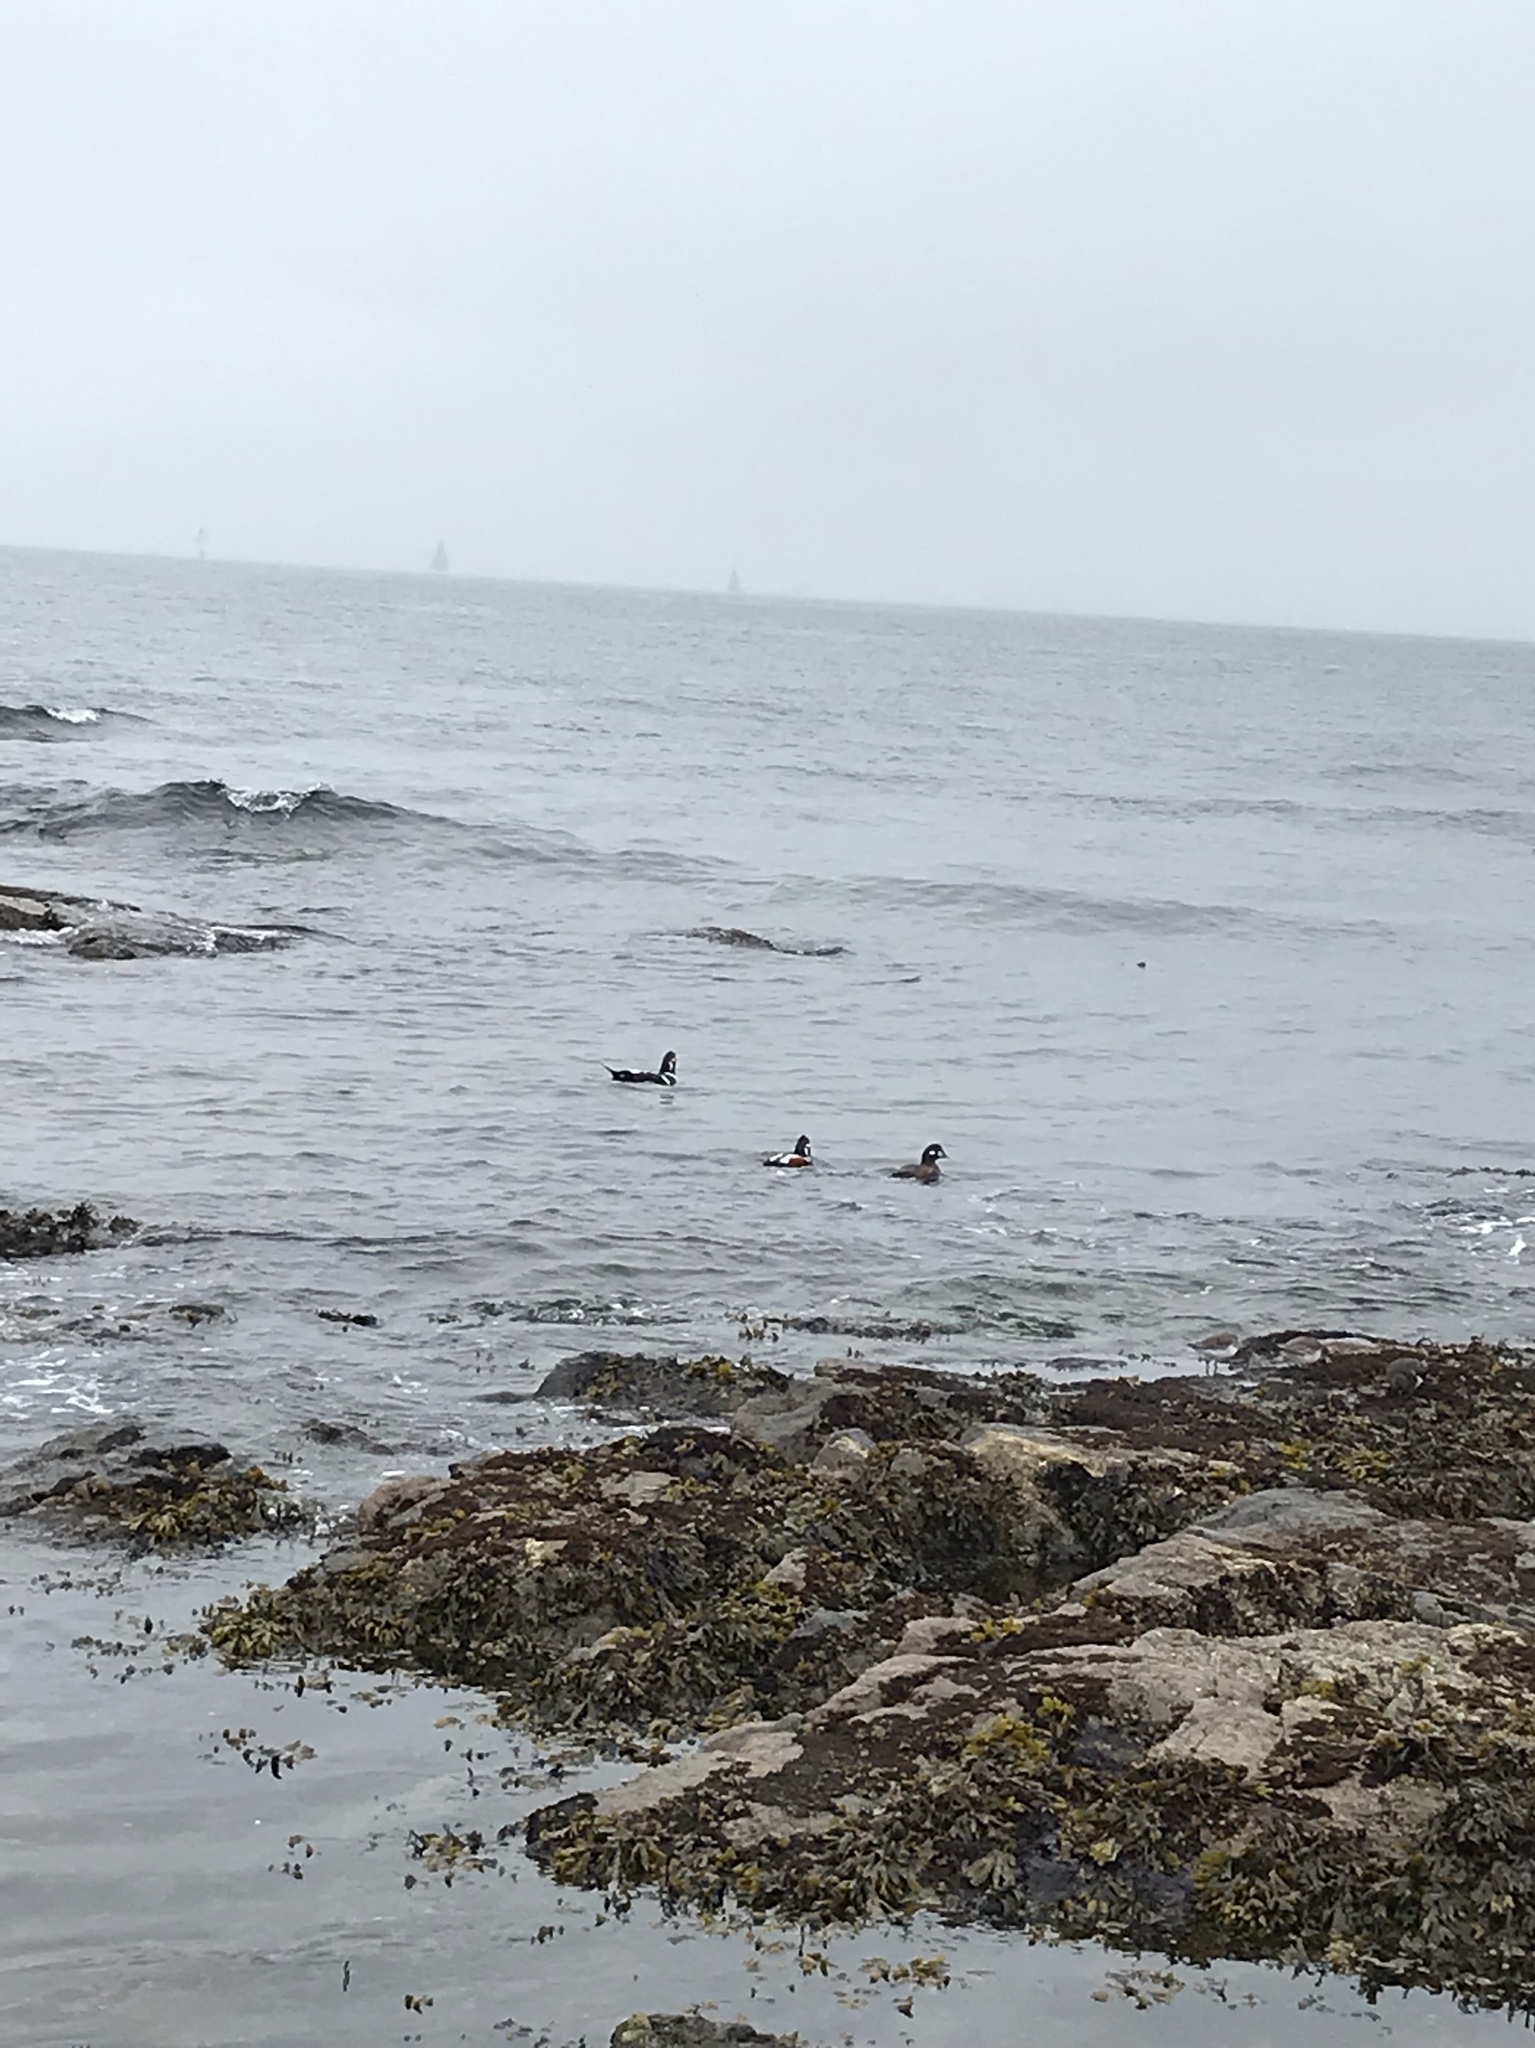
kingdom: Animalia
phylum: Chordata
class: Aves
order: Anseriformes
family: Anatidae
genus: Histrionicus
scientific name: Histrionicus histrionicus
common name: Harlequin duck
